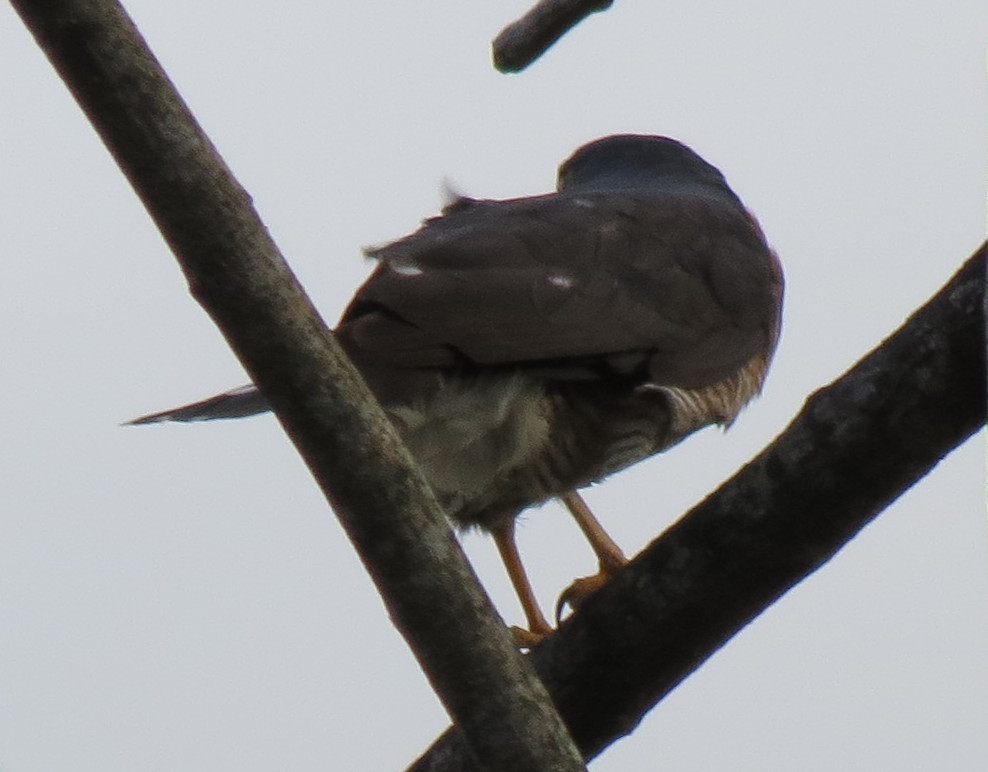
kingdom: Animalia
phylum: Chordata
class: Aves
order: Accipitriformes
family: Accipitridae
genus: Accipiter
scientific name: Accipiter minullus
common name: Little sparrowhawk
